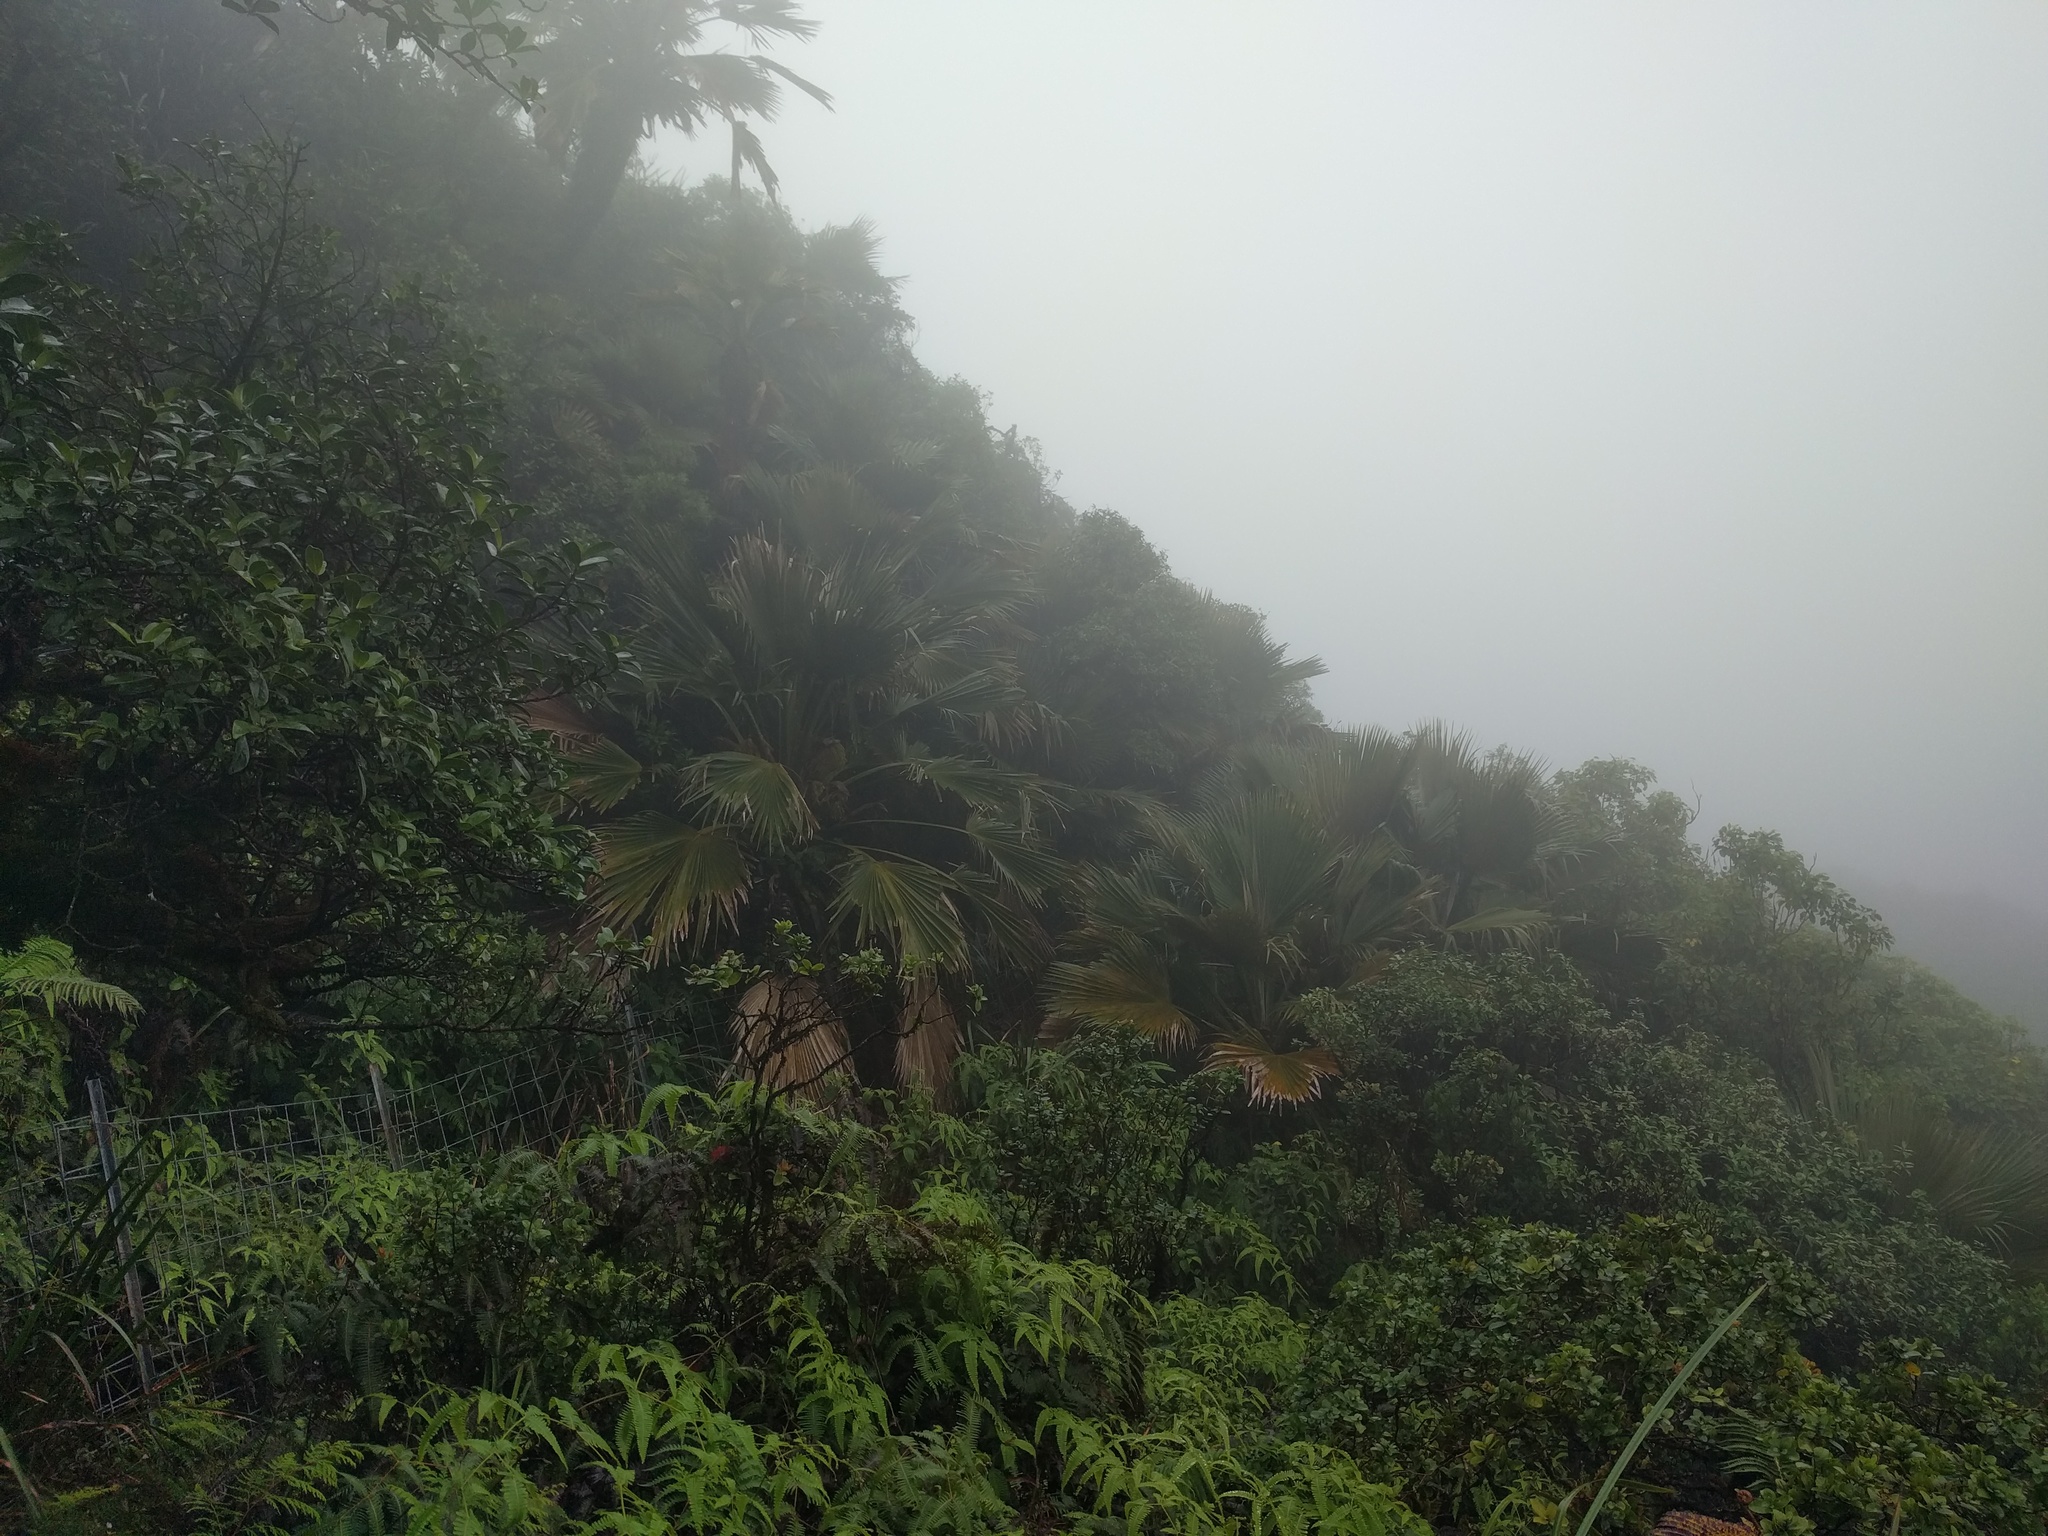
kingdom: Plantae
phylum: Tracheophyta
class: Liliopsida
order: Arecales
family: Arecaceae
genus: Pritchardia
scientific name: Pritchardia martii
